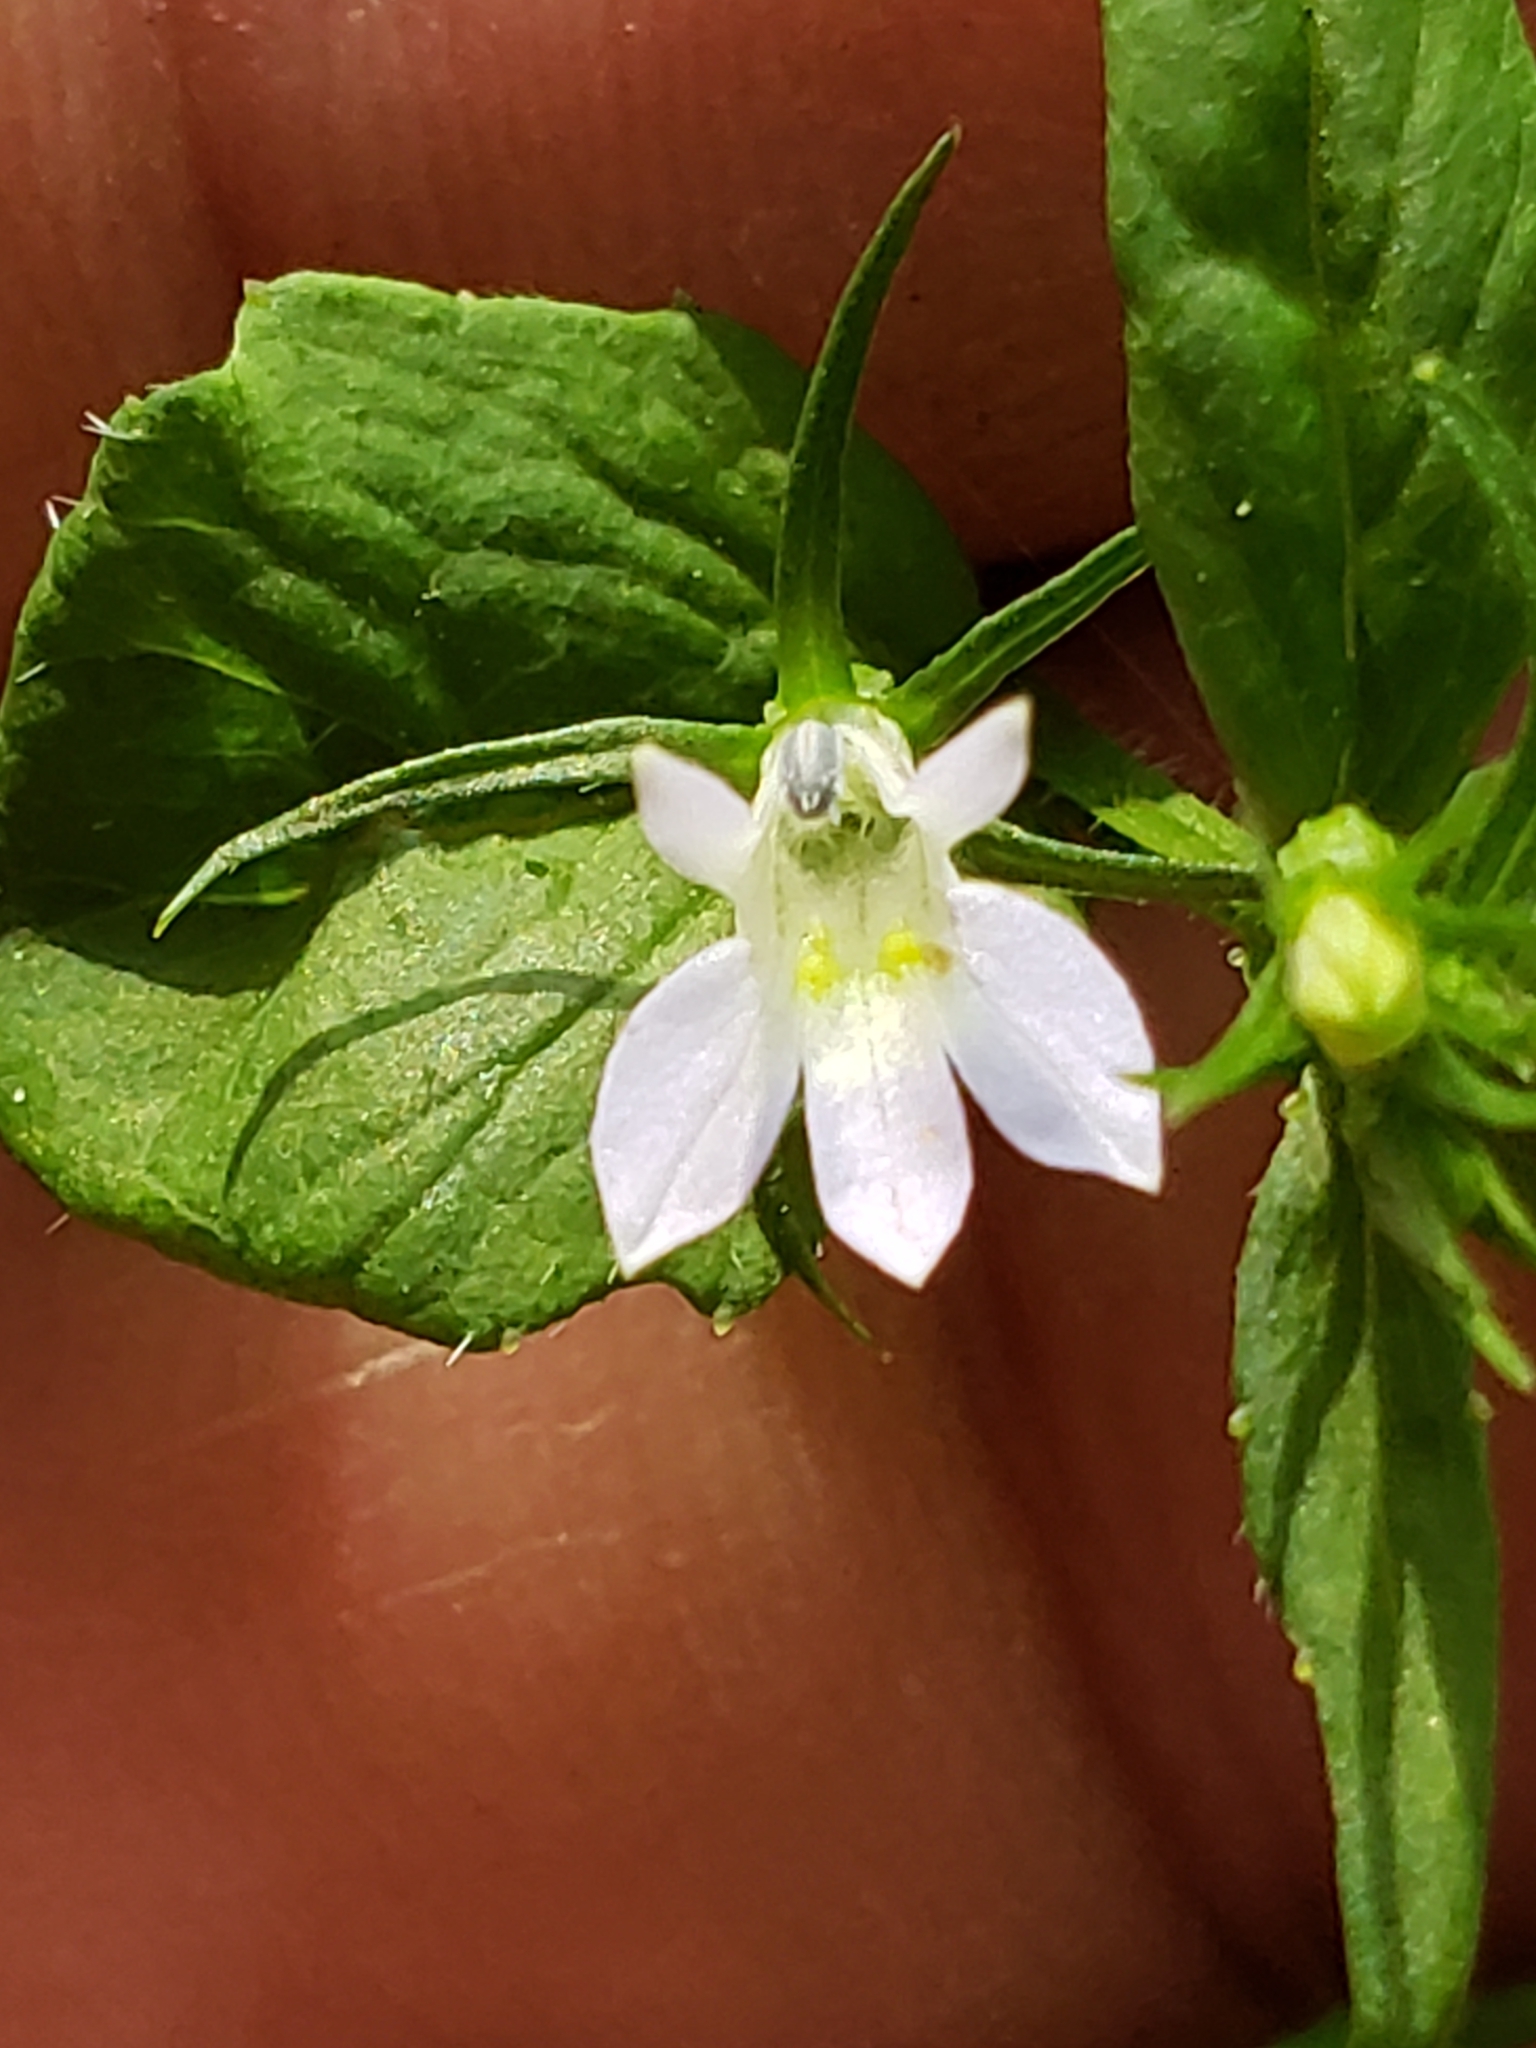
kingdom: Plantae
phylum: Tracheophyta
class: Magnoliopsida
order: Asterales
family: Campanulaceae
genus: Lobelia
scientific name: Lobelia inflata
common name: Indian tobacco
